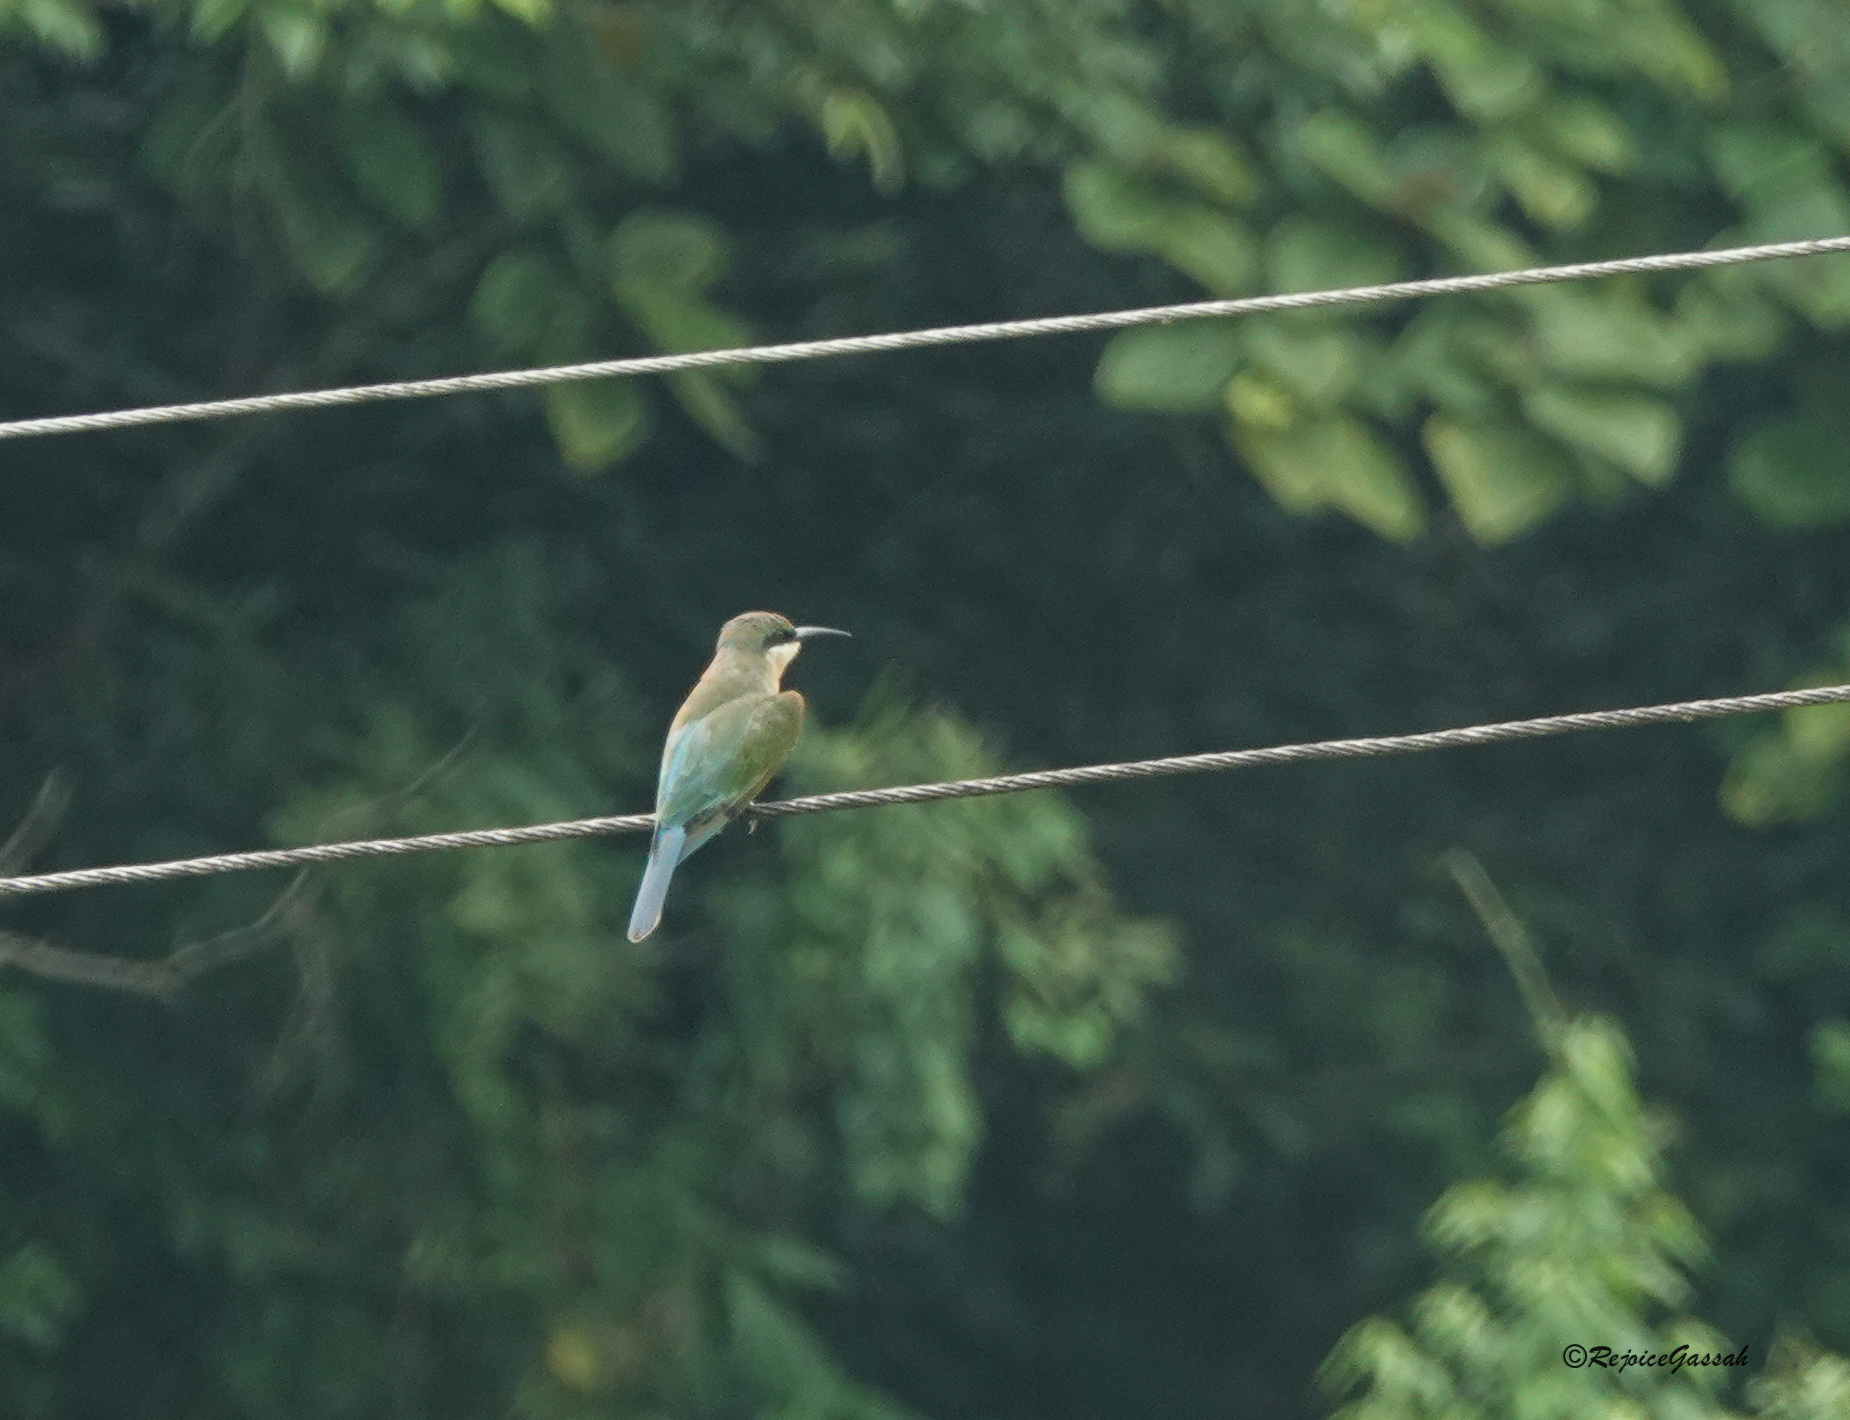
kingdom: Animalia
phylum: Chordata
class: Aves
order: Coraciiformes
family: Meropidae
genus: Merops
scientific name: Merops philippinus
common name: Blue-tailed bee-eater
